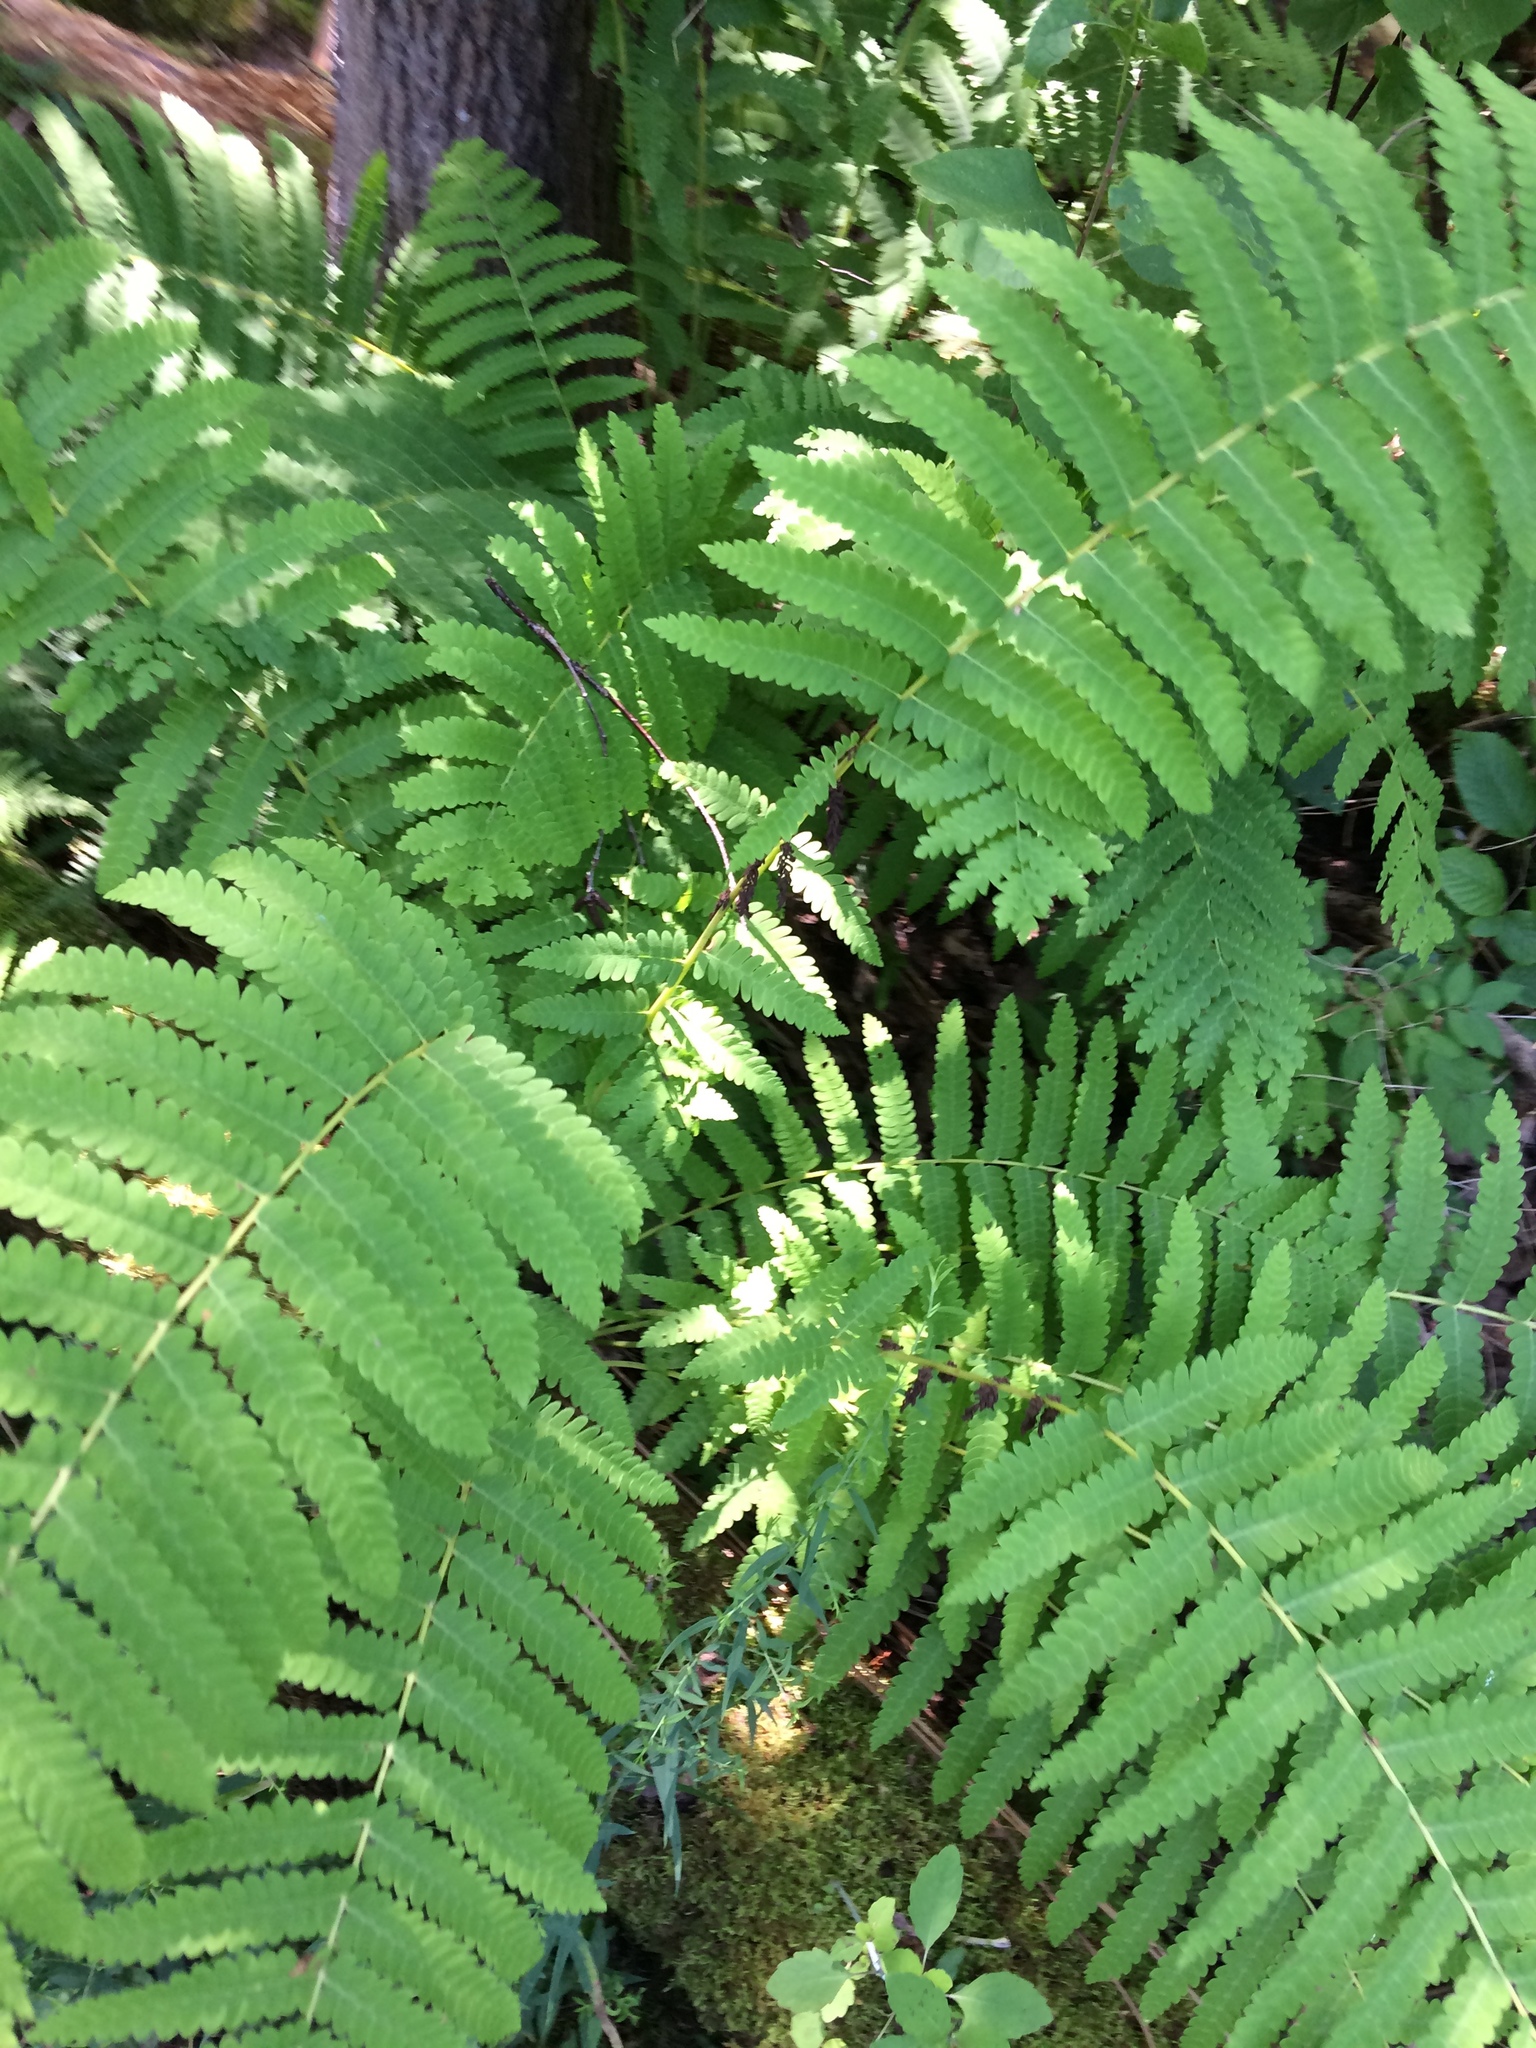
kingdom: Plantae
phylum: Tracheophyta
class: Polypodiopsida
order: Osmundales
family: Osmundaceae
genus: Claytosmunda
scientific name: Claytosmunda claytoniana
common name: Clayton's fern
